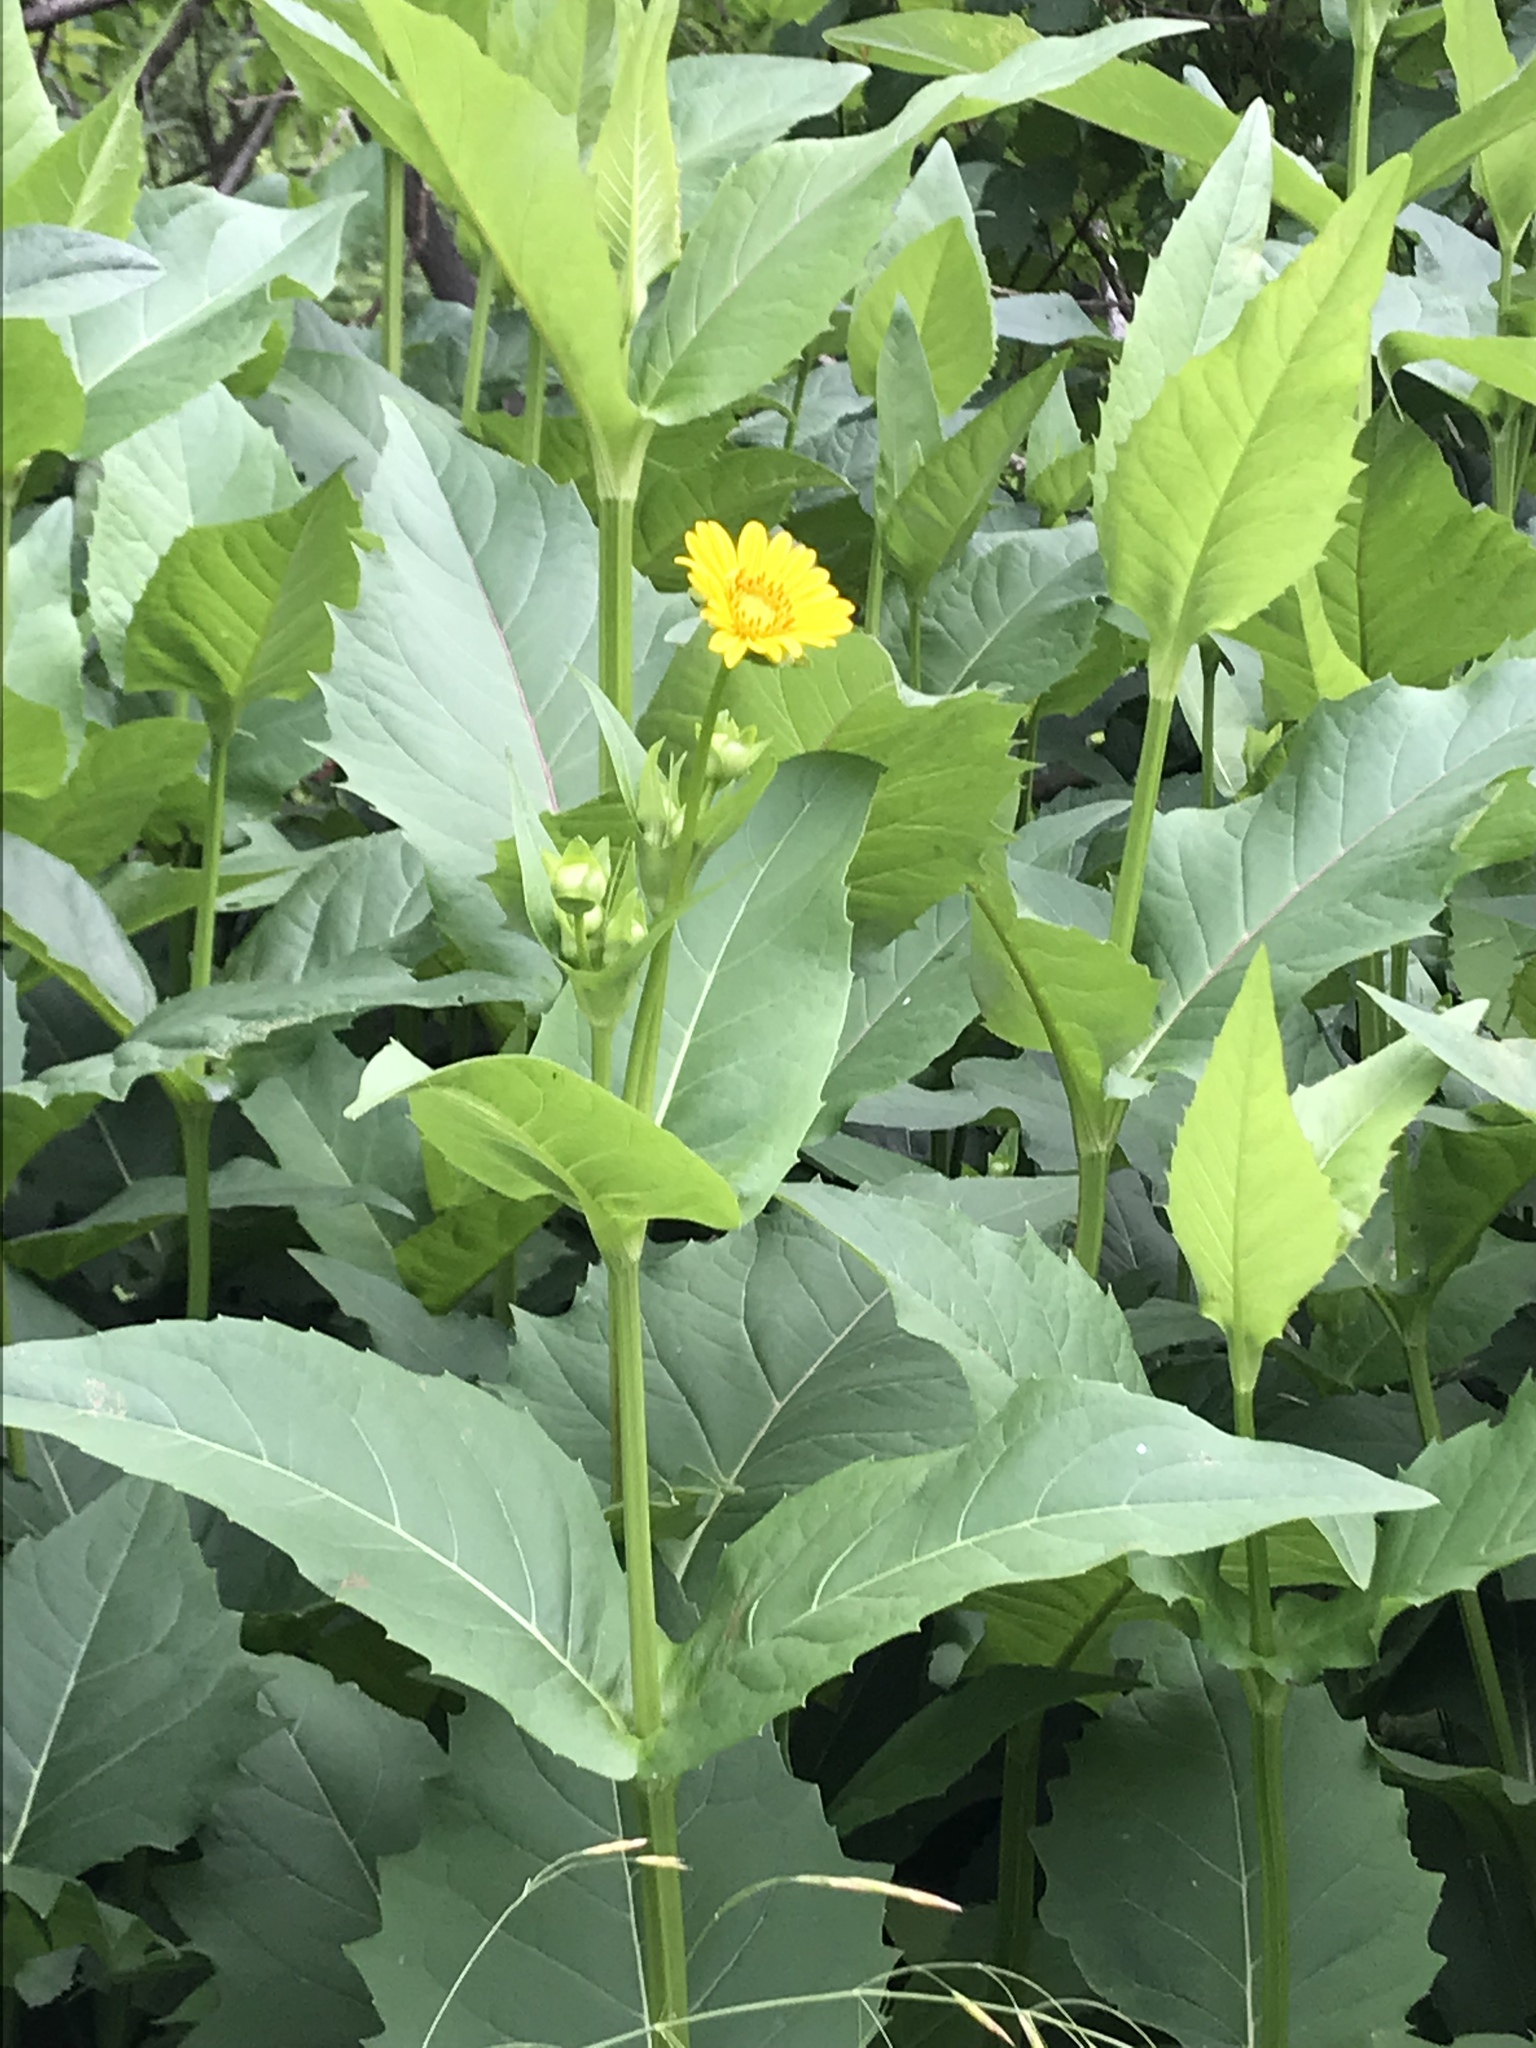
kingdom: Plantae
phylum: Tracheophyta
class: Magnoliopsida
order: Asterales
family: Asteraceae
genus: Silphium
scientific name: Silphium perfoliatum
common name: Cup-plant
